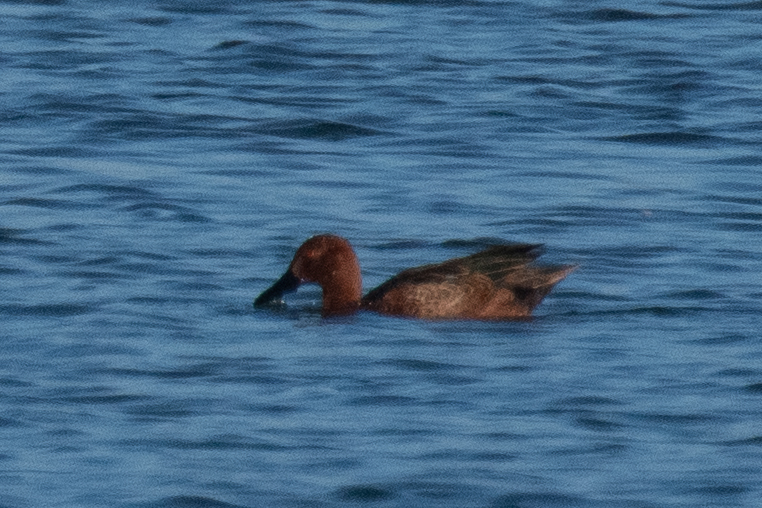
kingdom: Animalia
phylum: Chordata
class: Aves
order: Anseriformes
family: Anatidae
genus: Spatula
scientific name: Spatula cyanoptera
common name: Cinnamon teal
